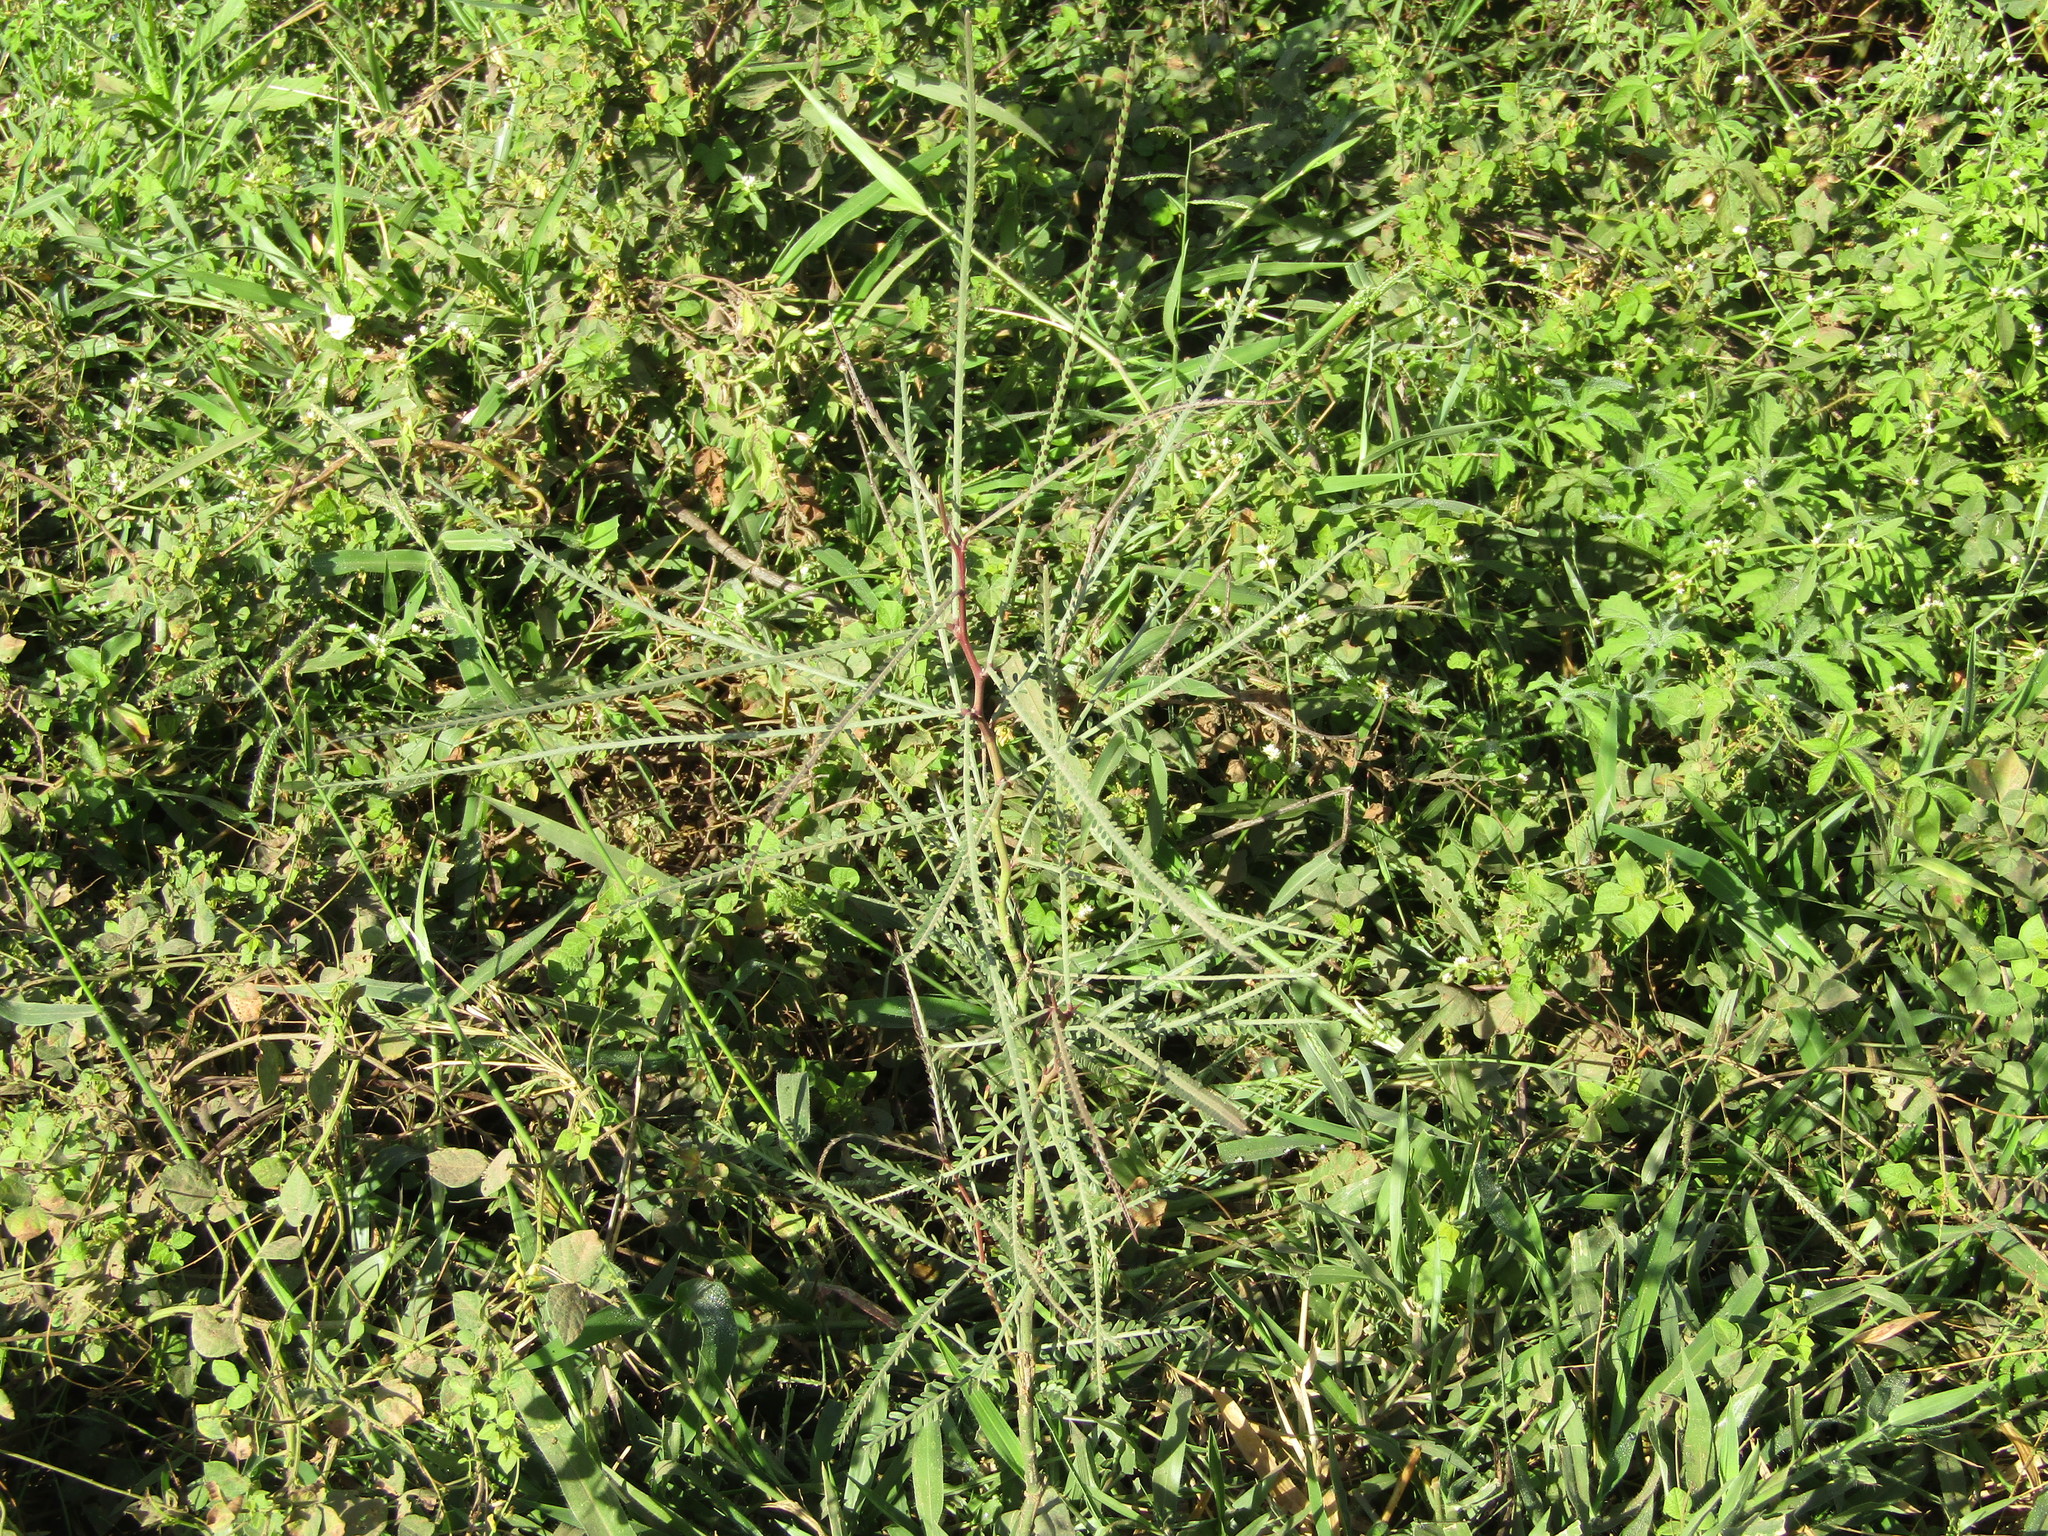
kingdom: Plantae
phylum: Tracheophyta
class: Magnoliopsida
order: Fabales
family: Fabaceae
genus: Parkinsonia
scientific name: Parkinsonia aculeata
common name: Jerusalem thorn
